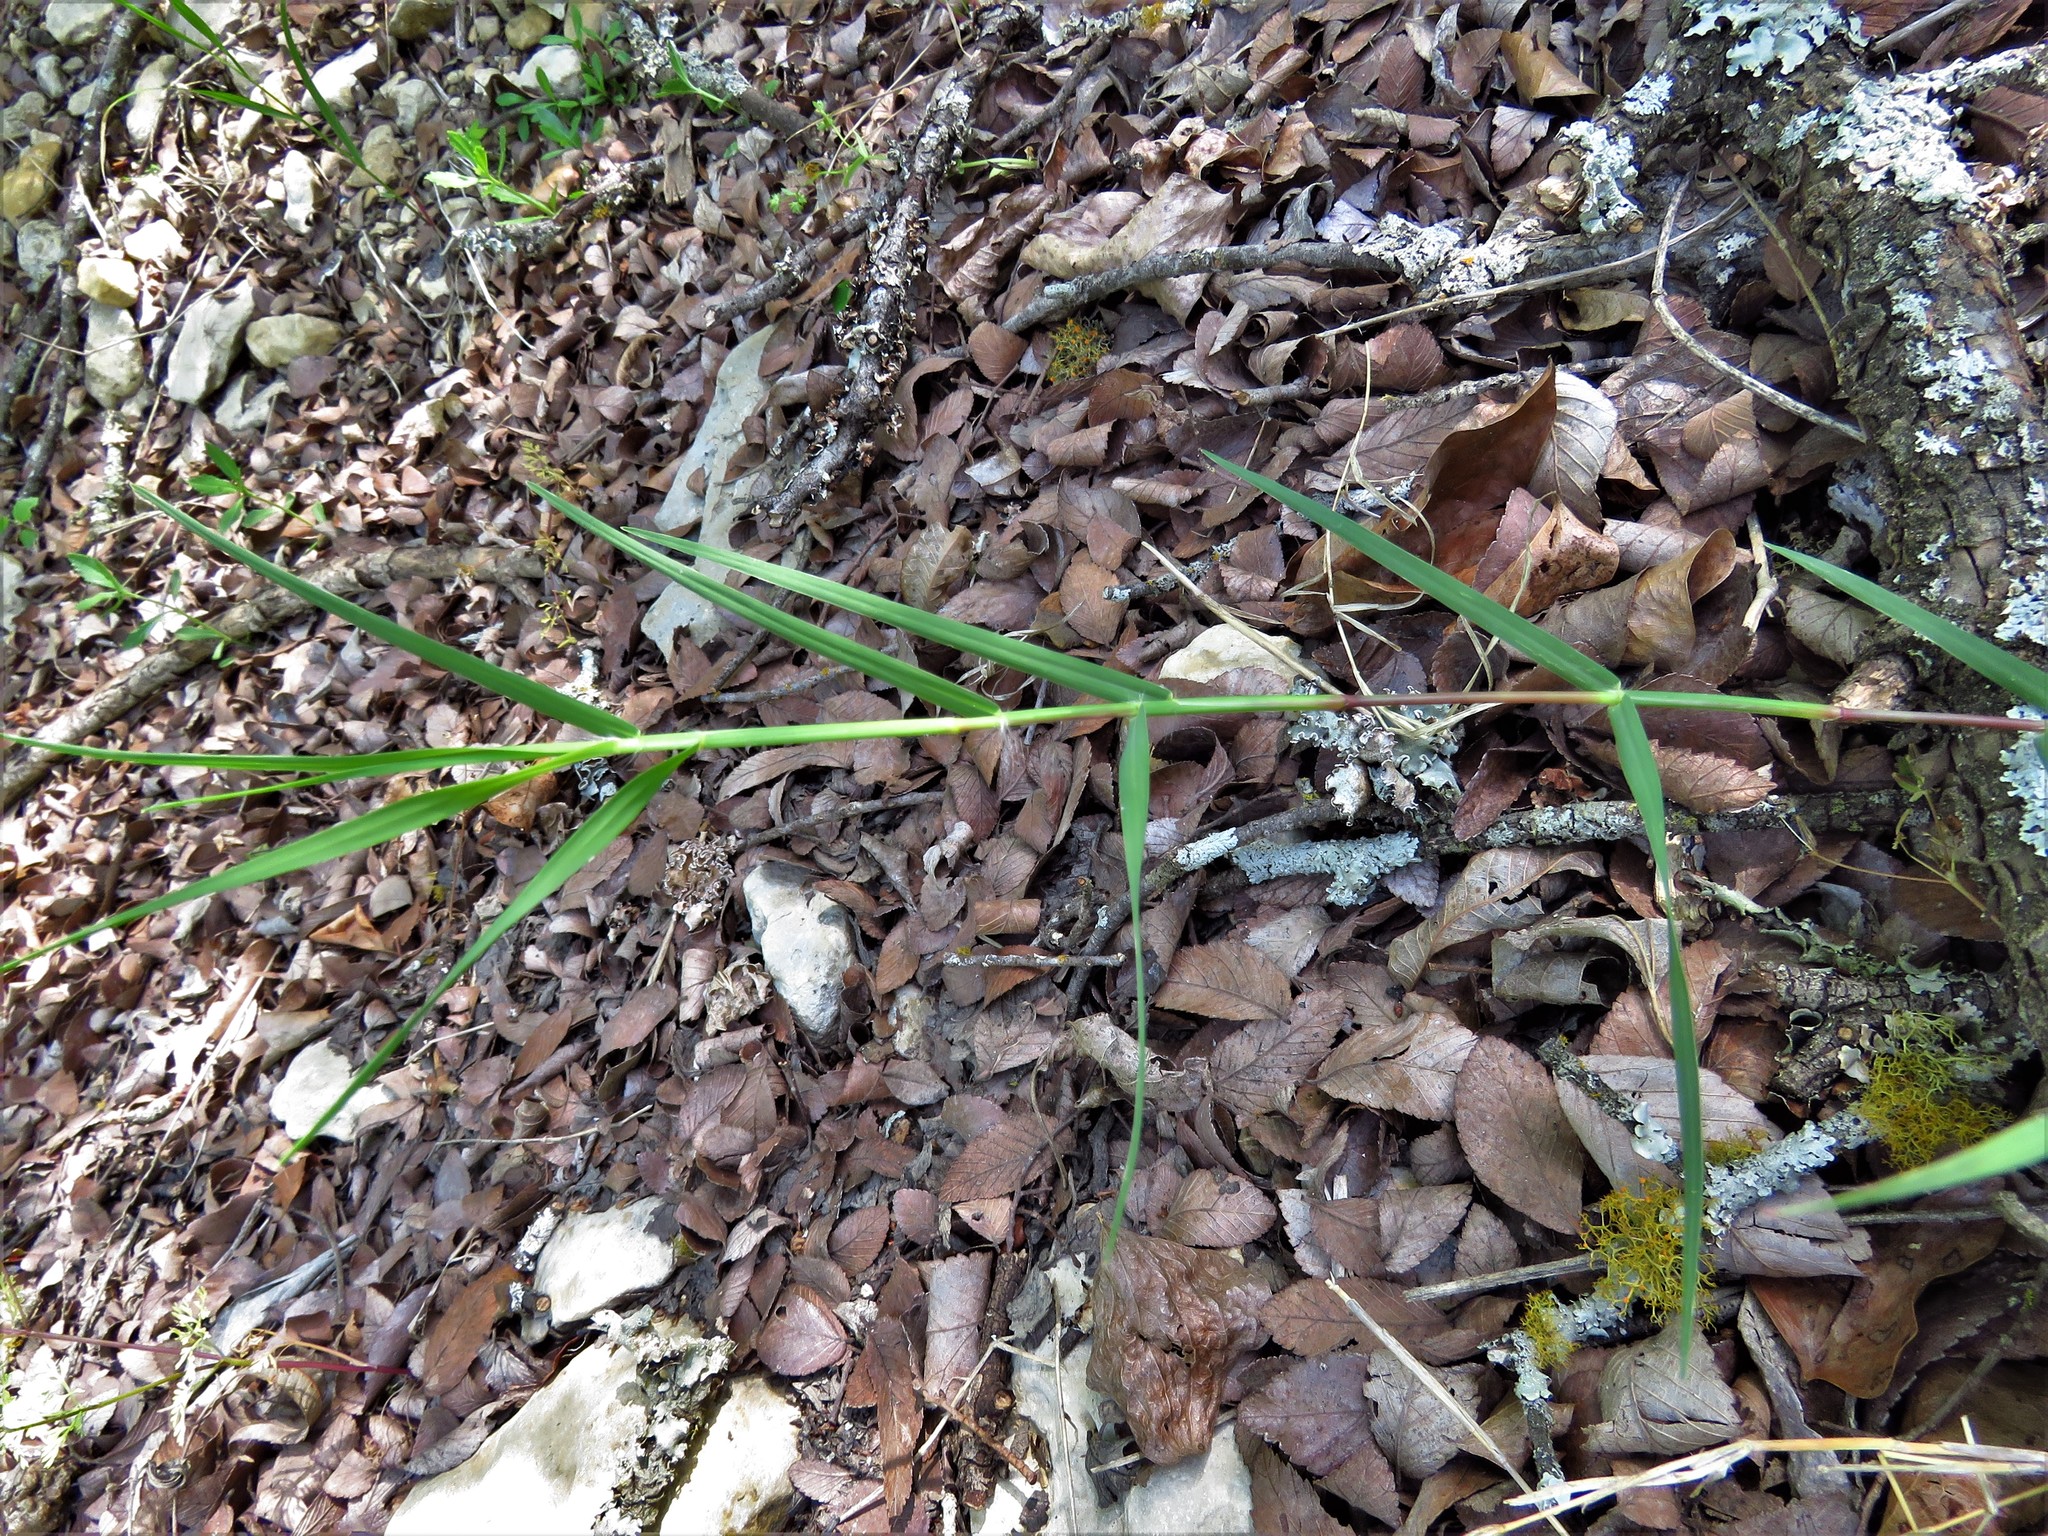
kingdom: Plantae
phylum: Tracheophyta
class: Liliopsida
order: Poales
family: Poaceae
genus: Cynodon
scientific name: Cynodon dactylon
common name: Bermuda grass
